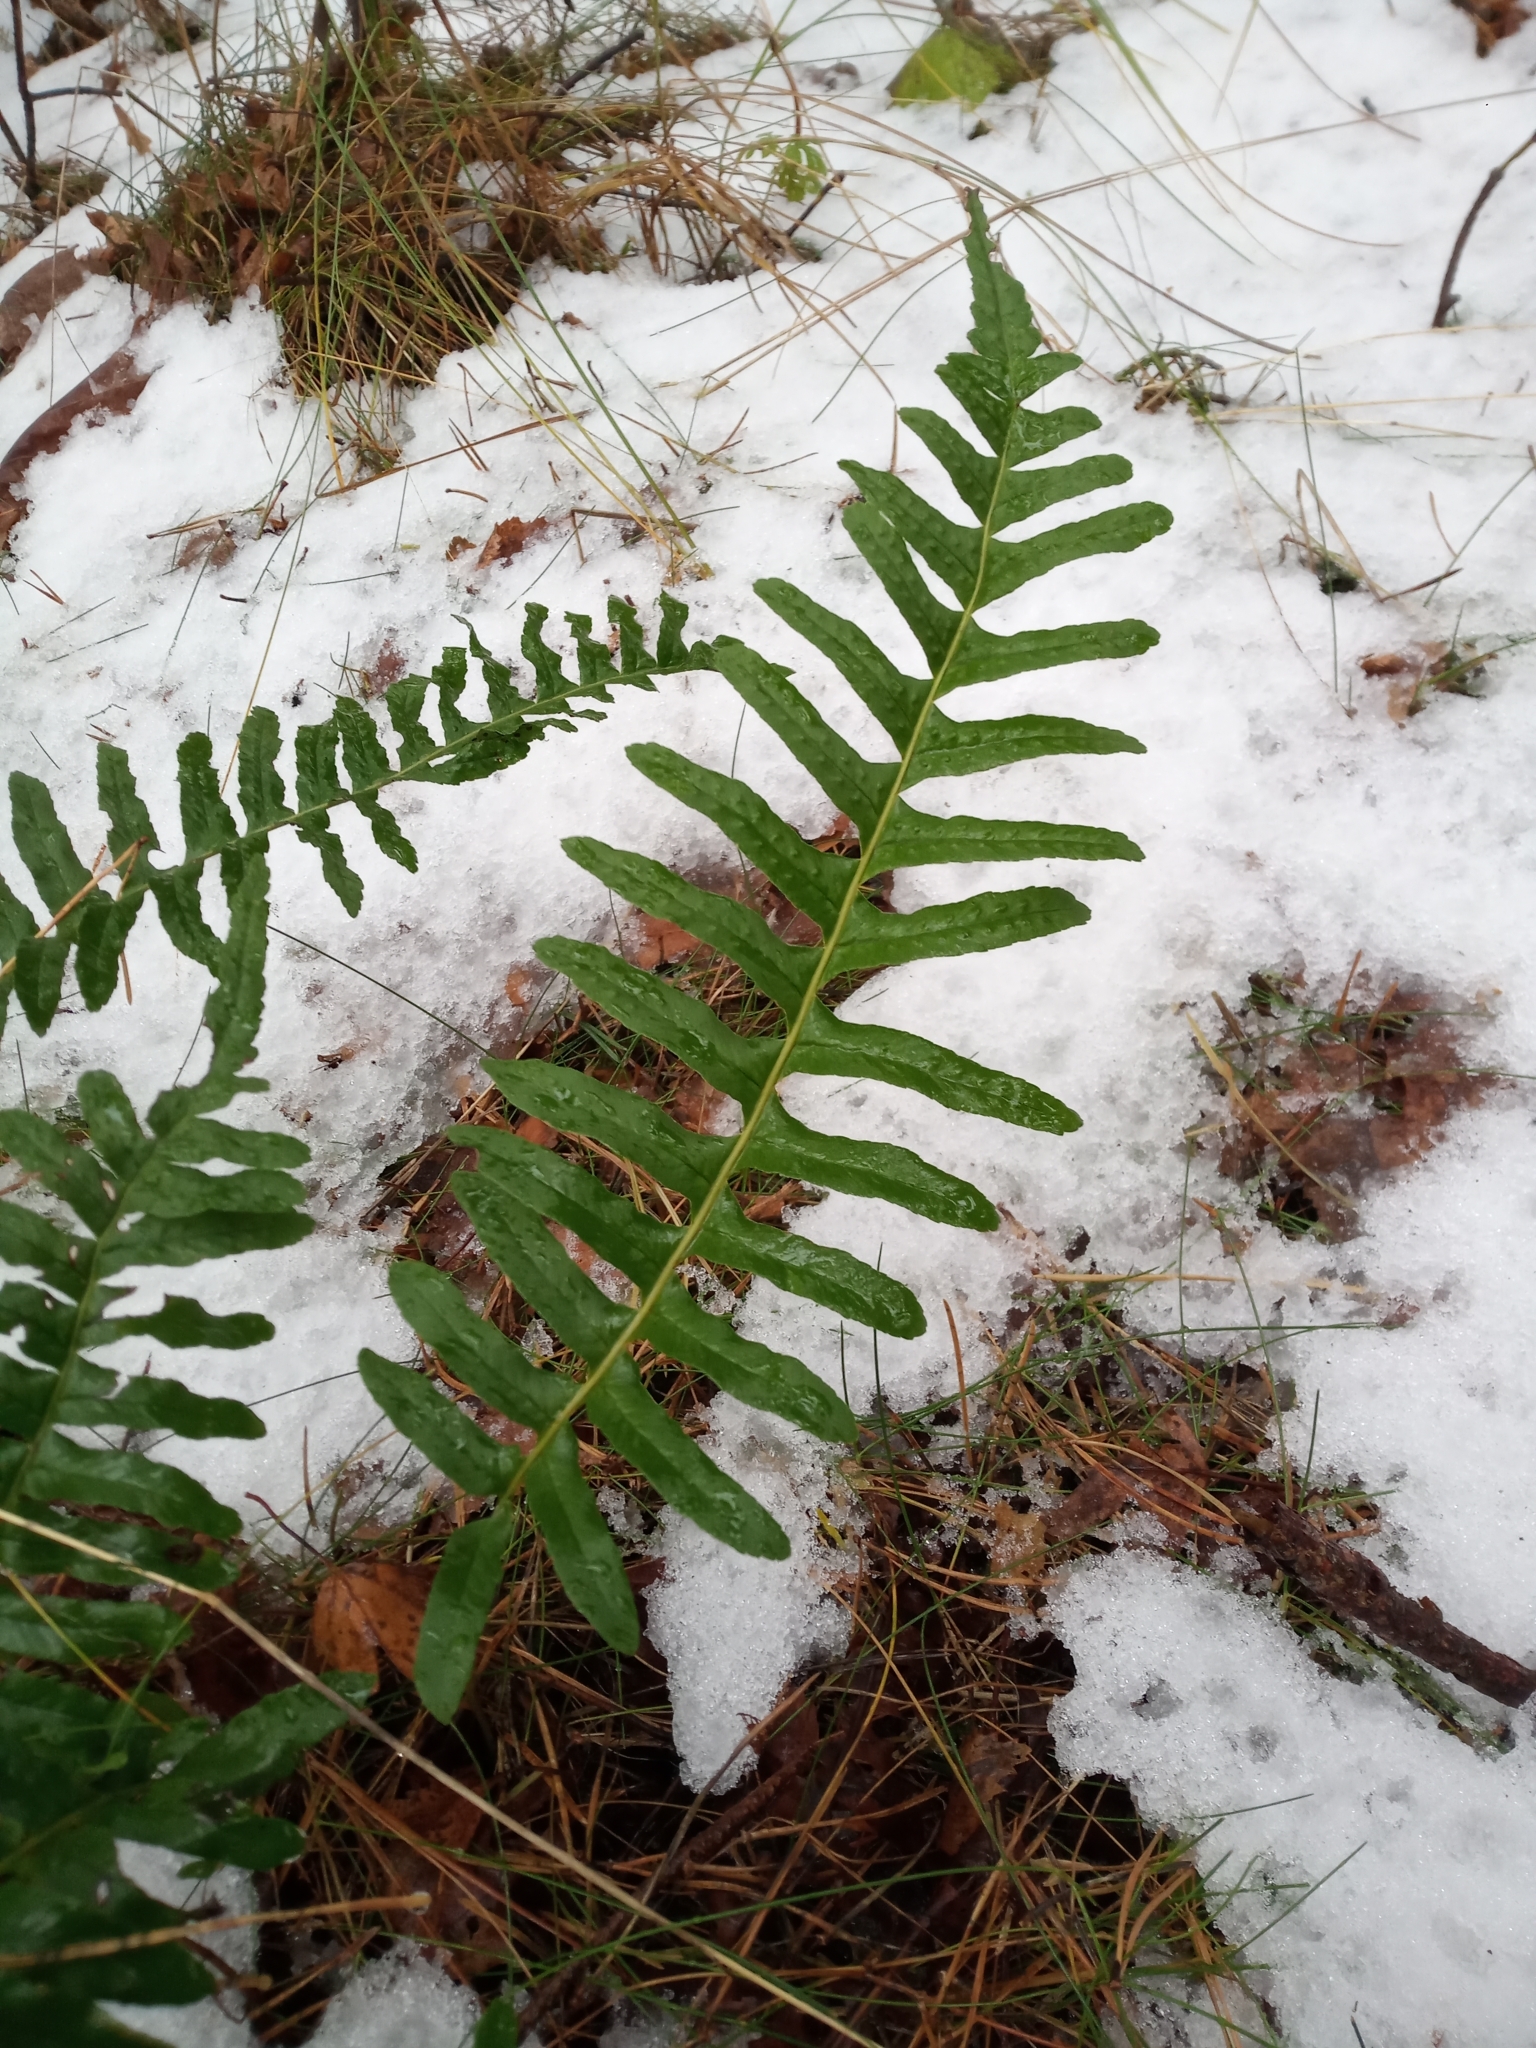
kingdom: Plantae
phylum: Tracheophyta
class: Polypodiopsida
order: Polypodiales
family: Polypodiaceae
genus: Polypodium
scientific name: Polypodium vulgare
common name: Common polypody
